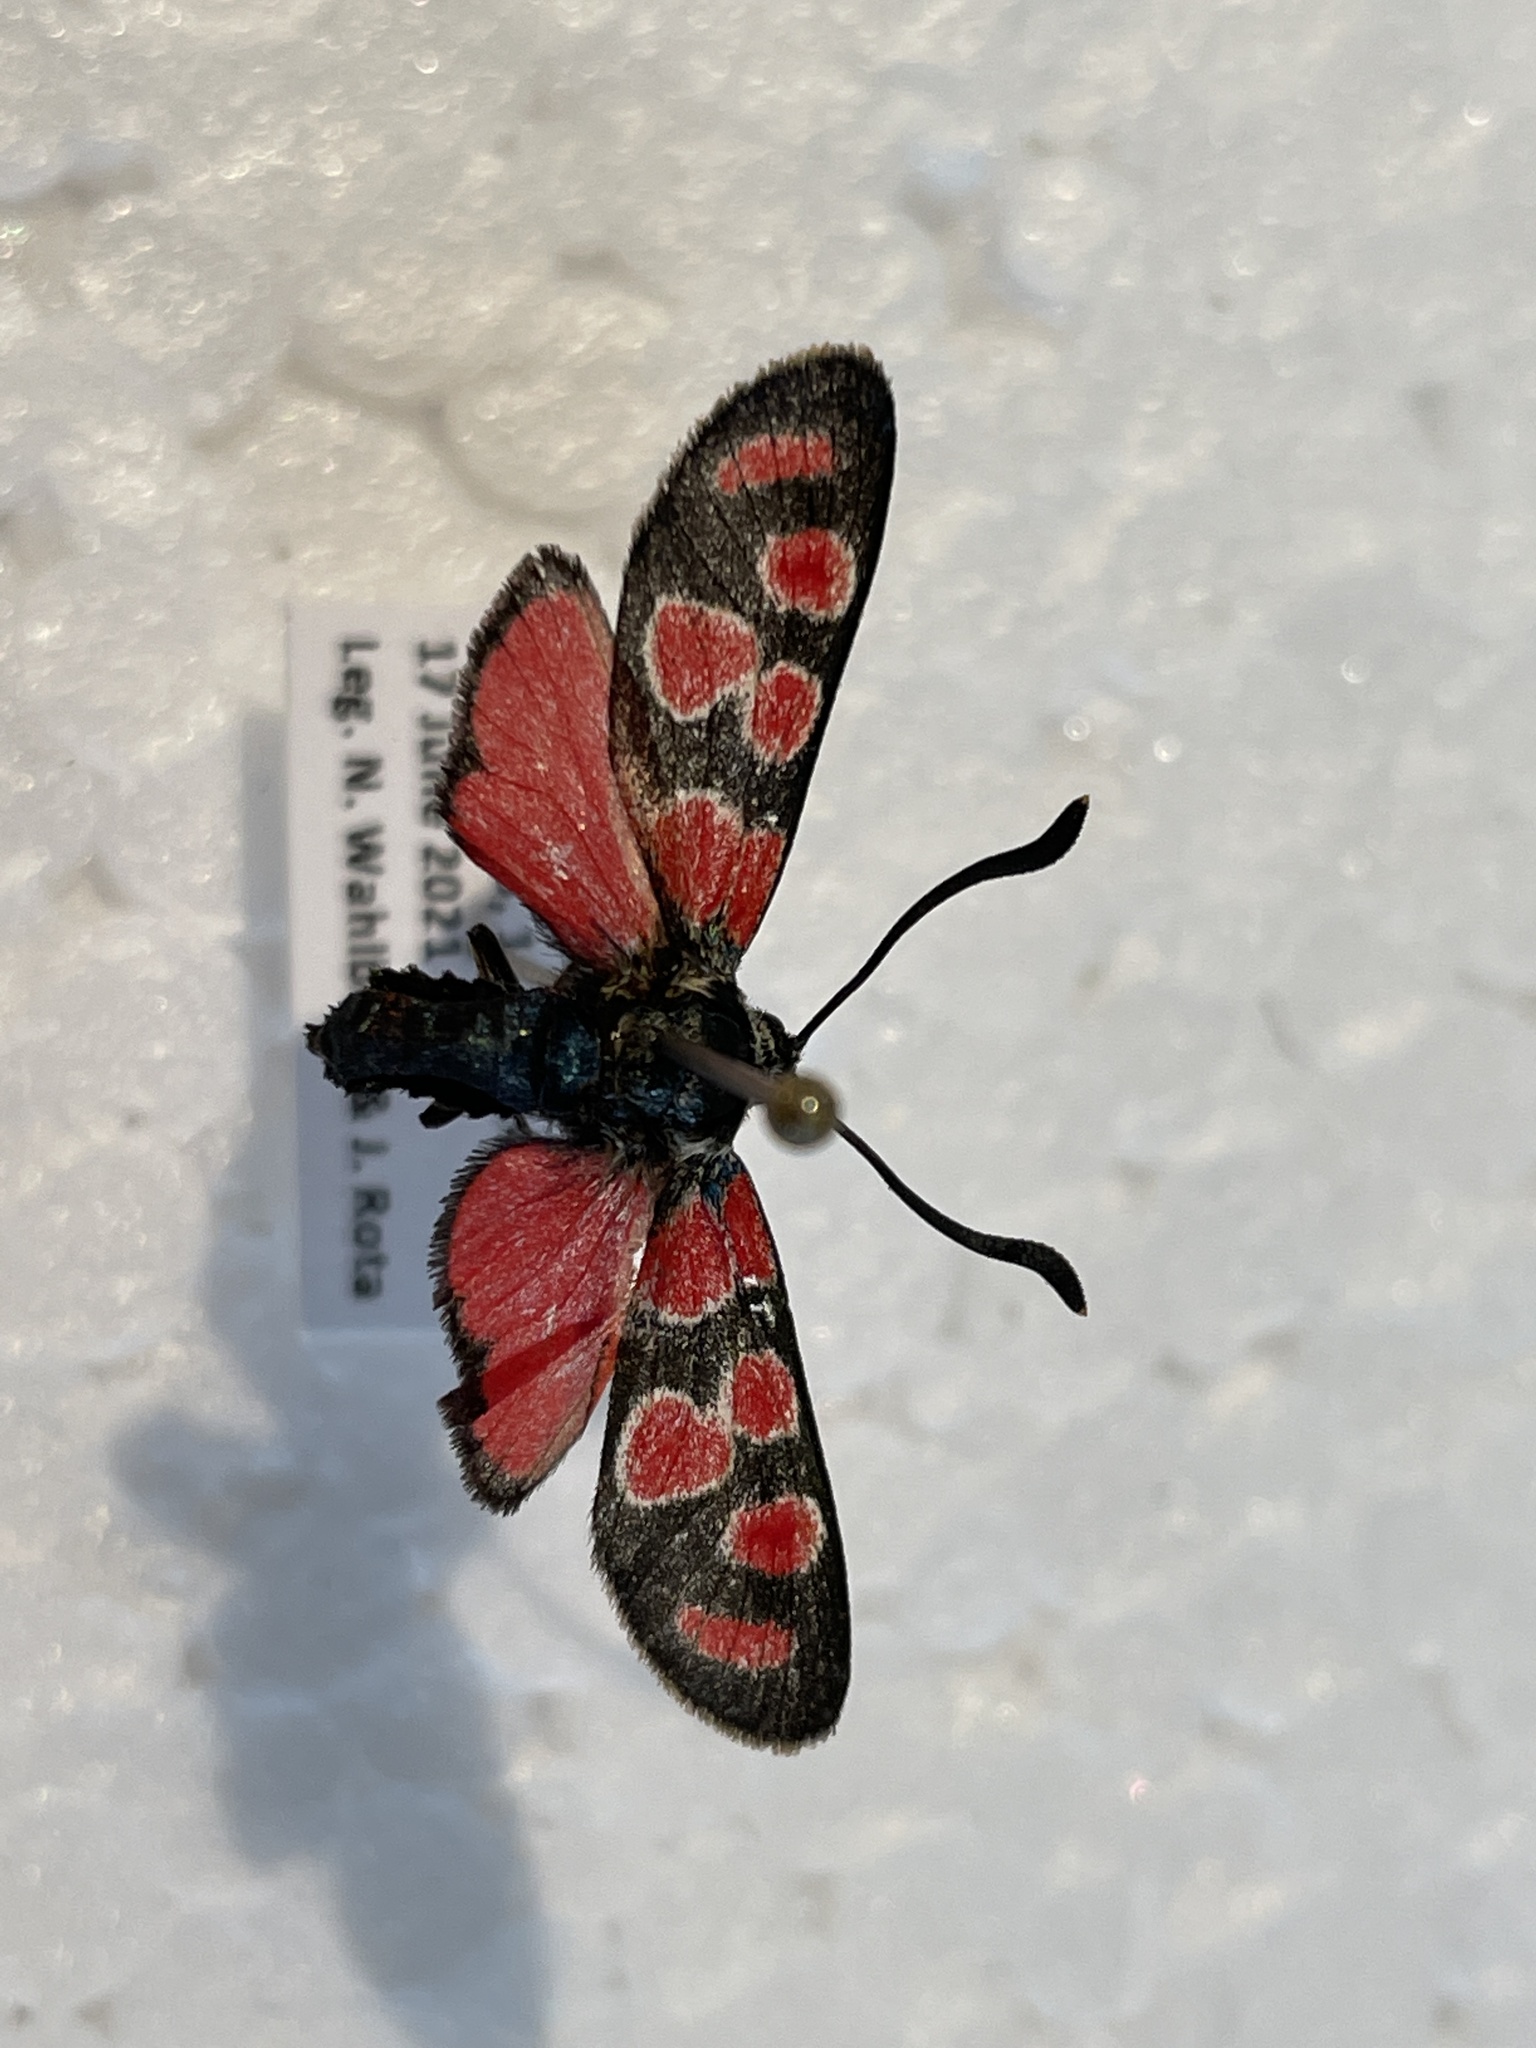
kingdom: Animalia
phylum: Arthropoda
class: Insecta
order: Lepidoptera
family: Zygaenidae
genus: Zygaena
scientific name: Zygaena carniolica
